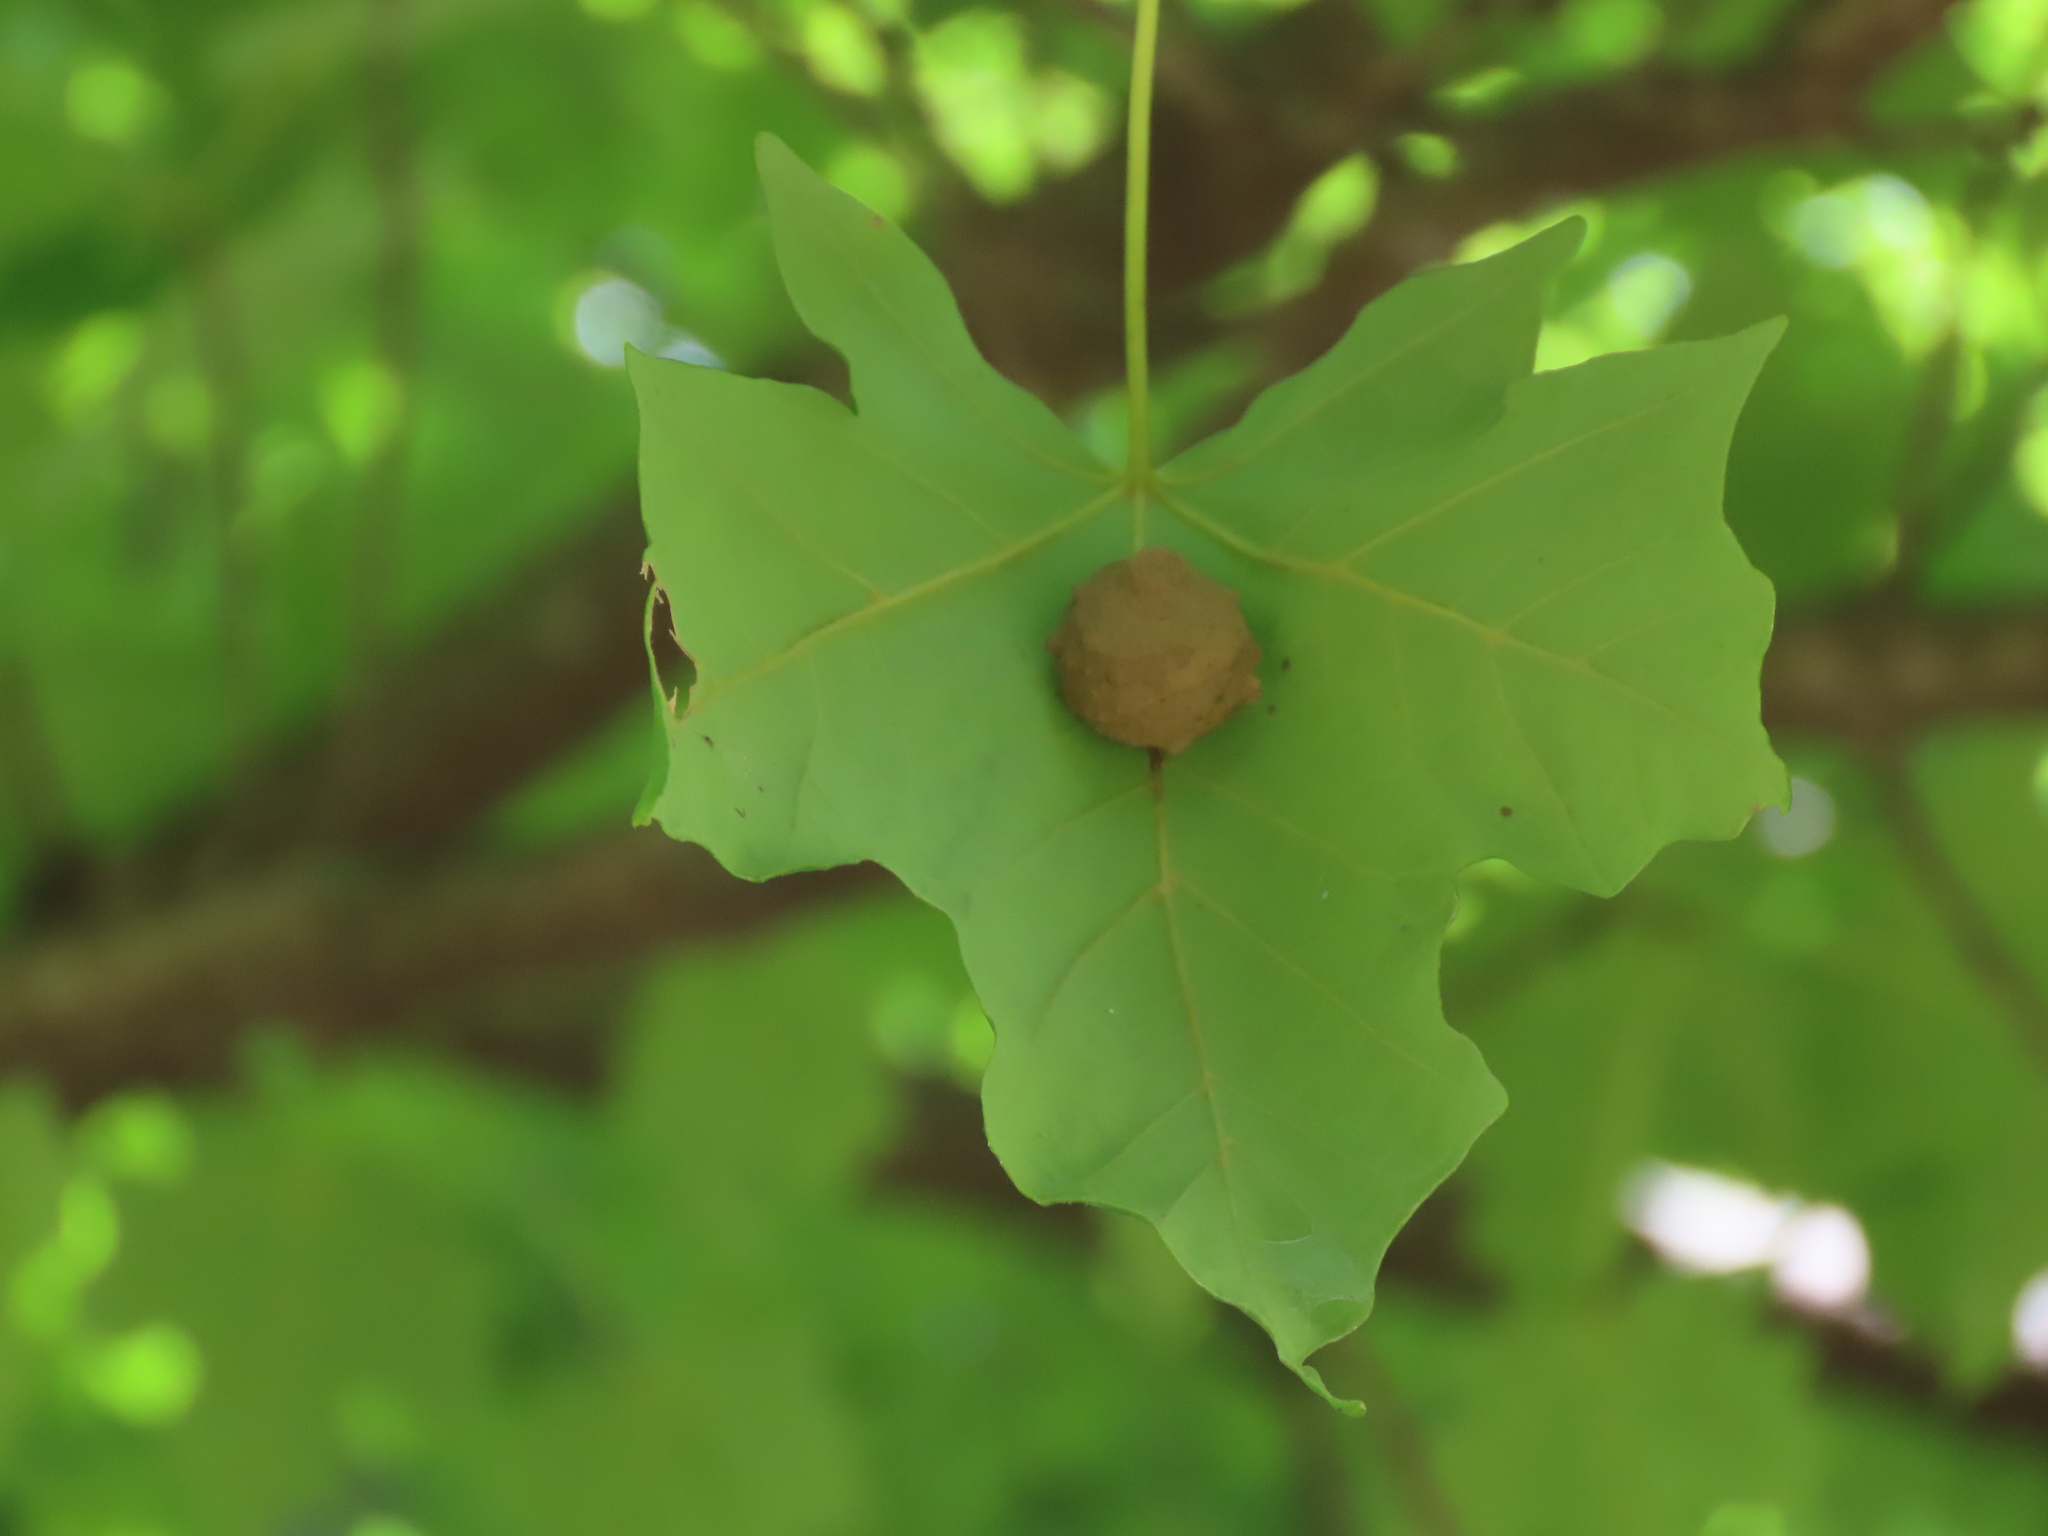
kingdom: Animalia
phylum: Arthropoda
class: Insecta
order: Hymenoptera
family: Vespidae
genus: Eumenes
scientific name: Eumenes
